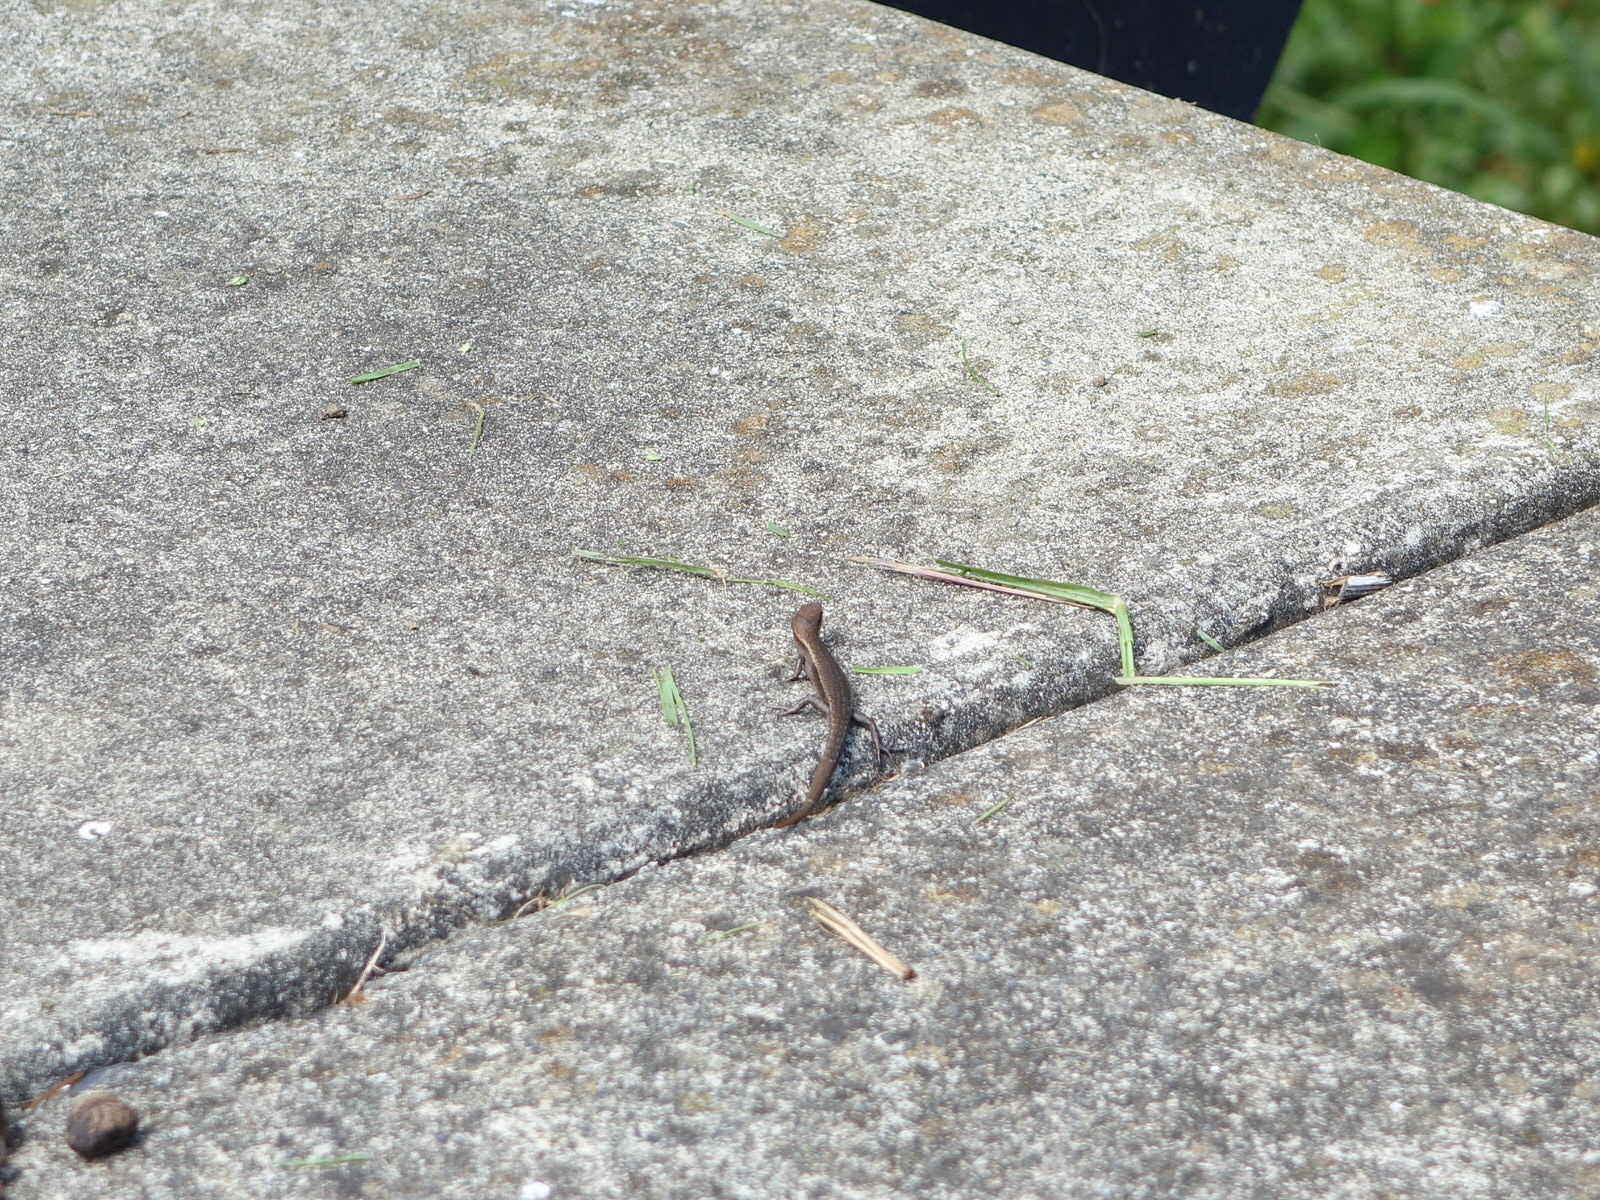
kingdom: Animalia
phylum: Chordata
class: Squamata
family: Scincidae
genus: Lampropholis
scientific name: Lampropholis delicata
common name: Plague skink
